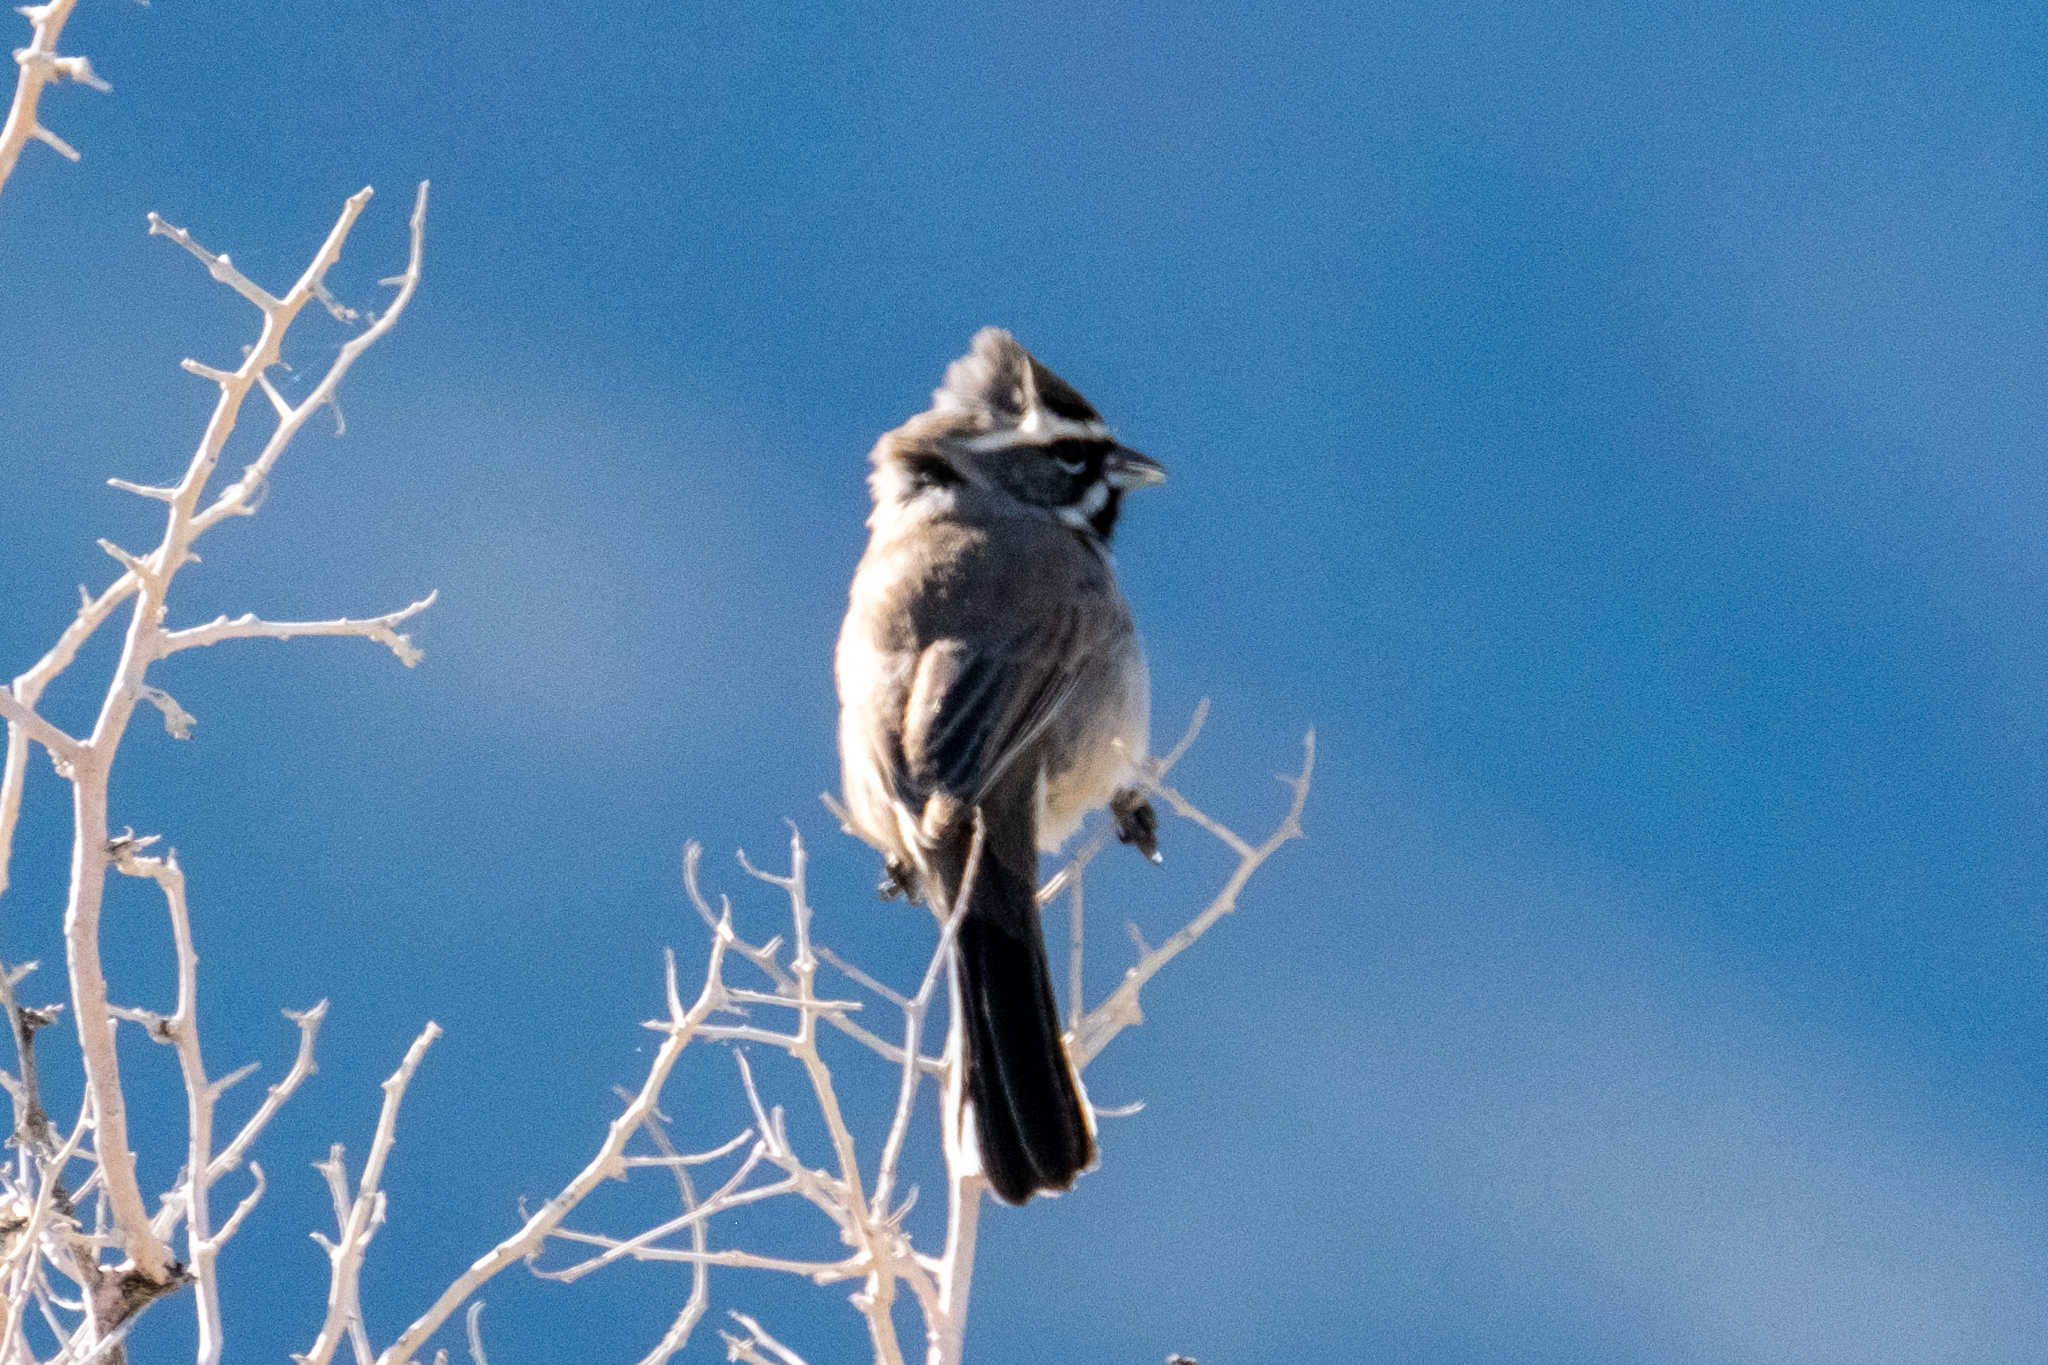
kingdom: Animalia
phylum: Chordata
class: Aves
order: Passeriformes
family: Passerellidae
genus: Amphispiza
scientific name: Amphispiza bilineata
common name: Black-throated sparrow
